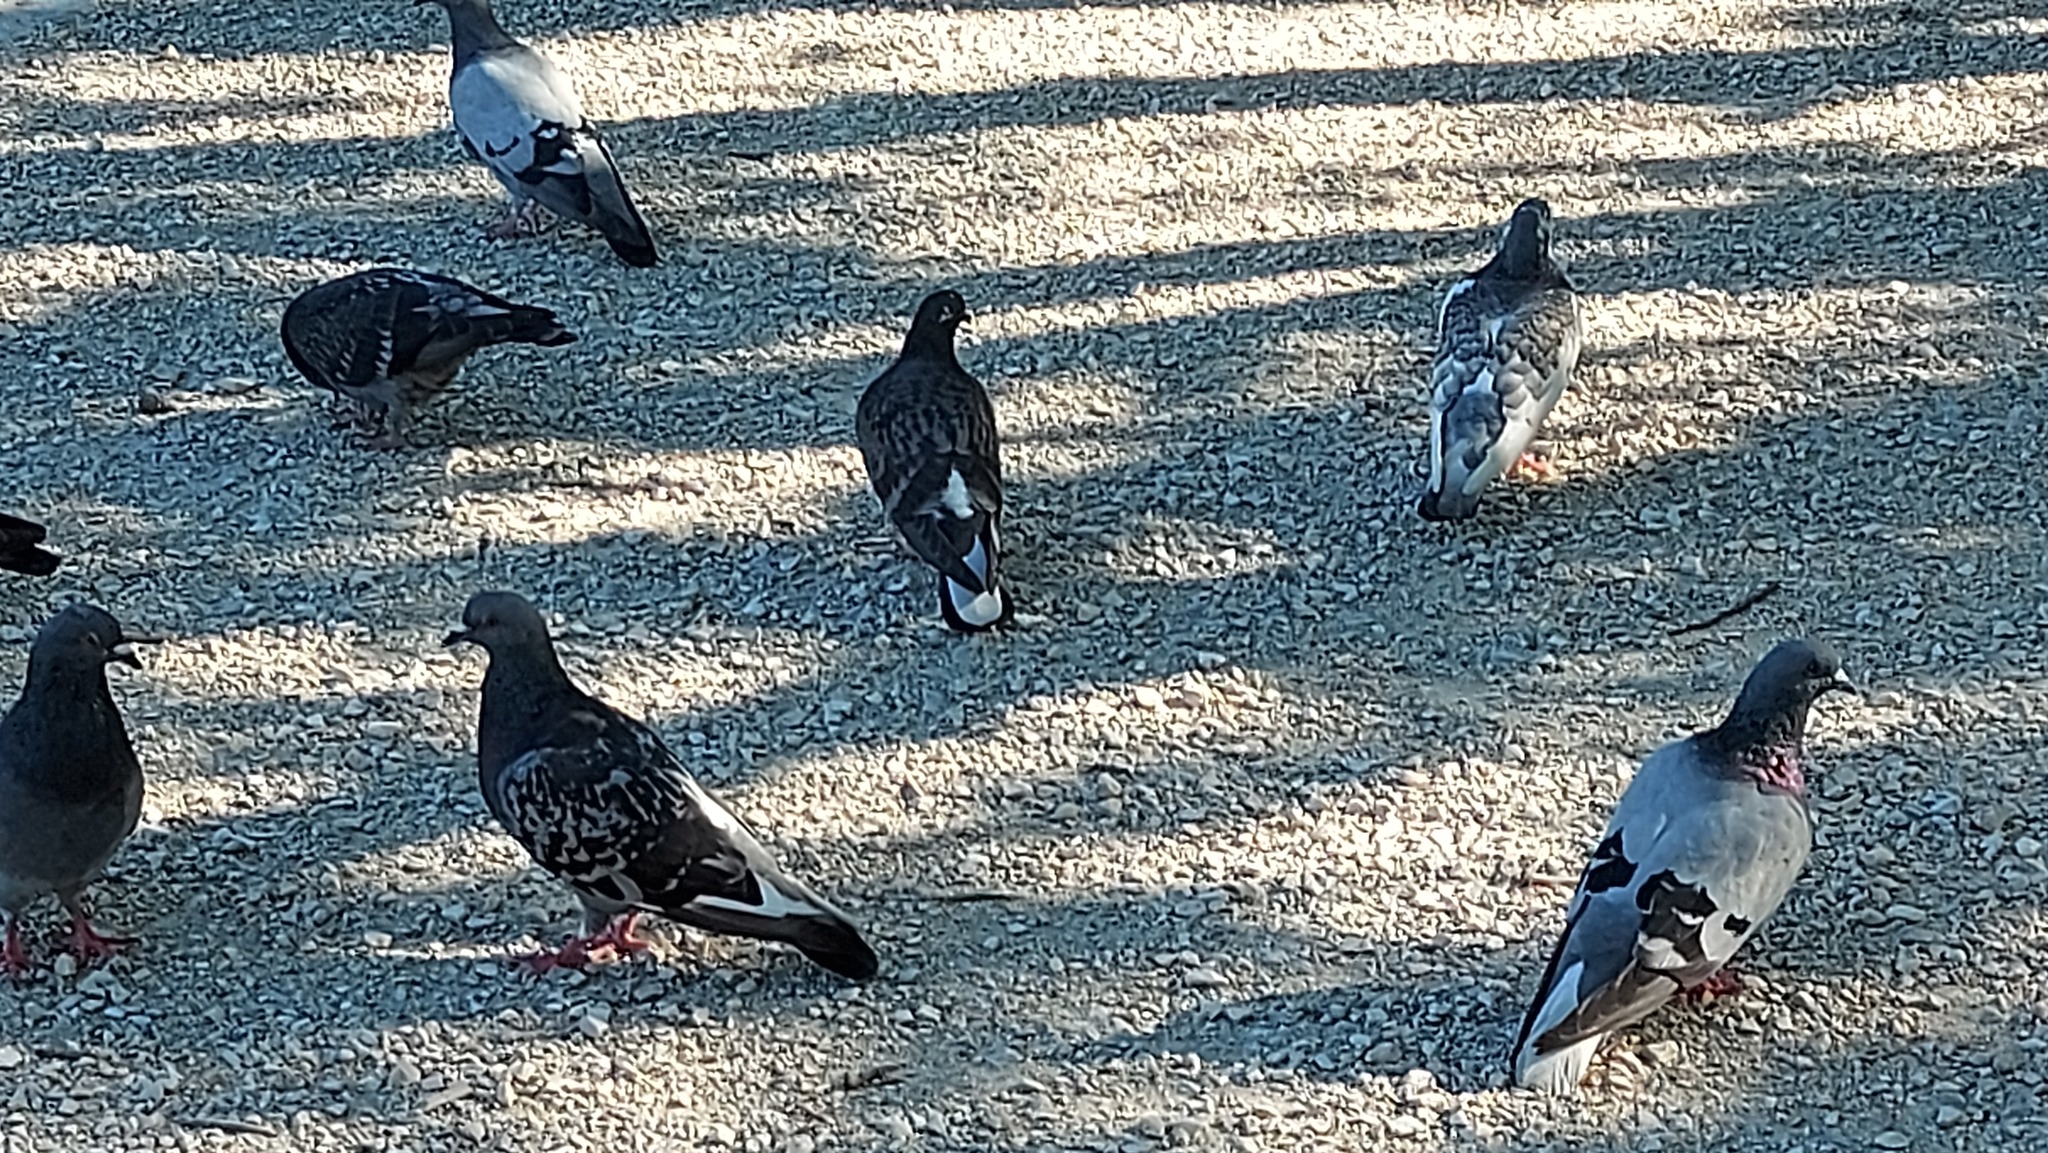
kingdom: Animalia
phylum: Chordata
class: Aves
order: Columbiformes
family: Columbidae
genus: Columba
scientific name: Columba livia
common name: Rock pigeon
